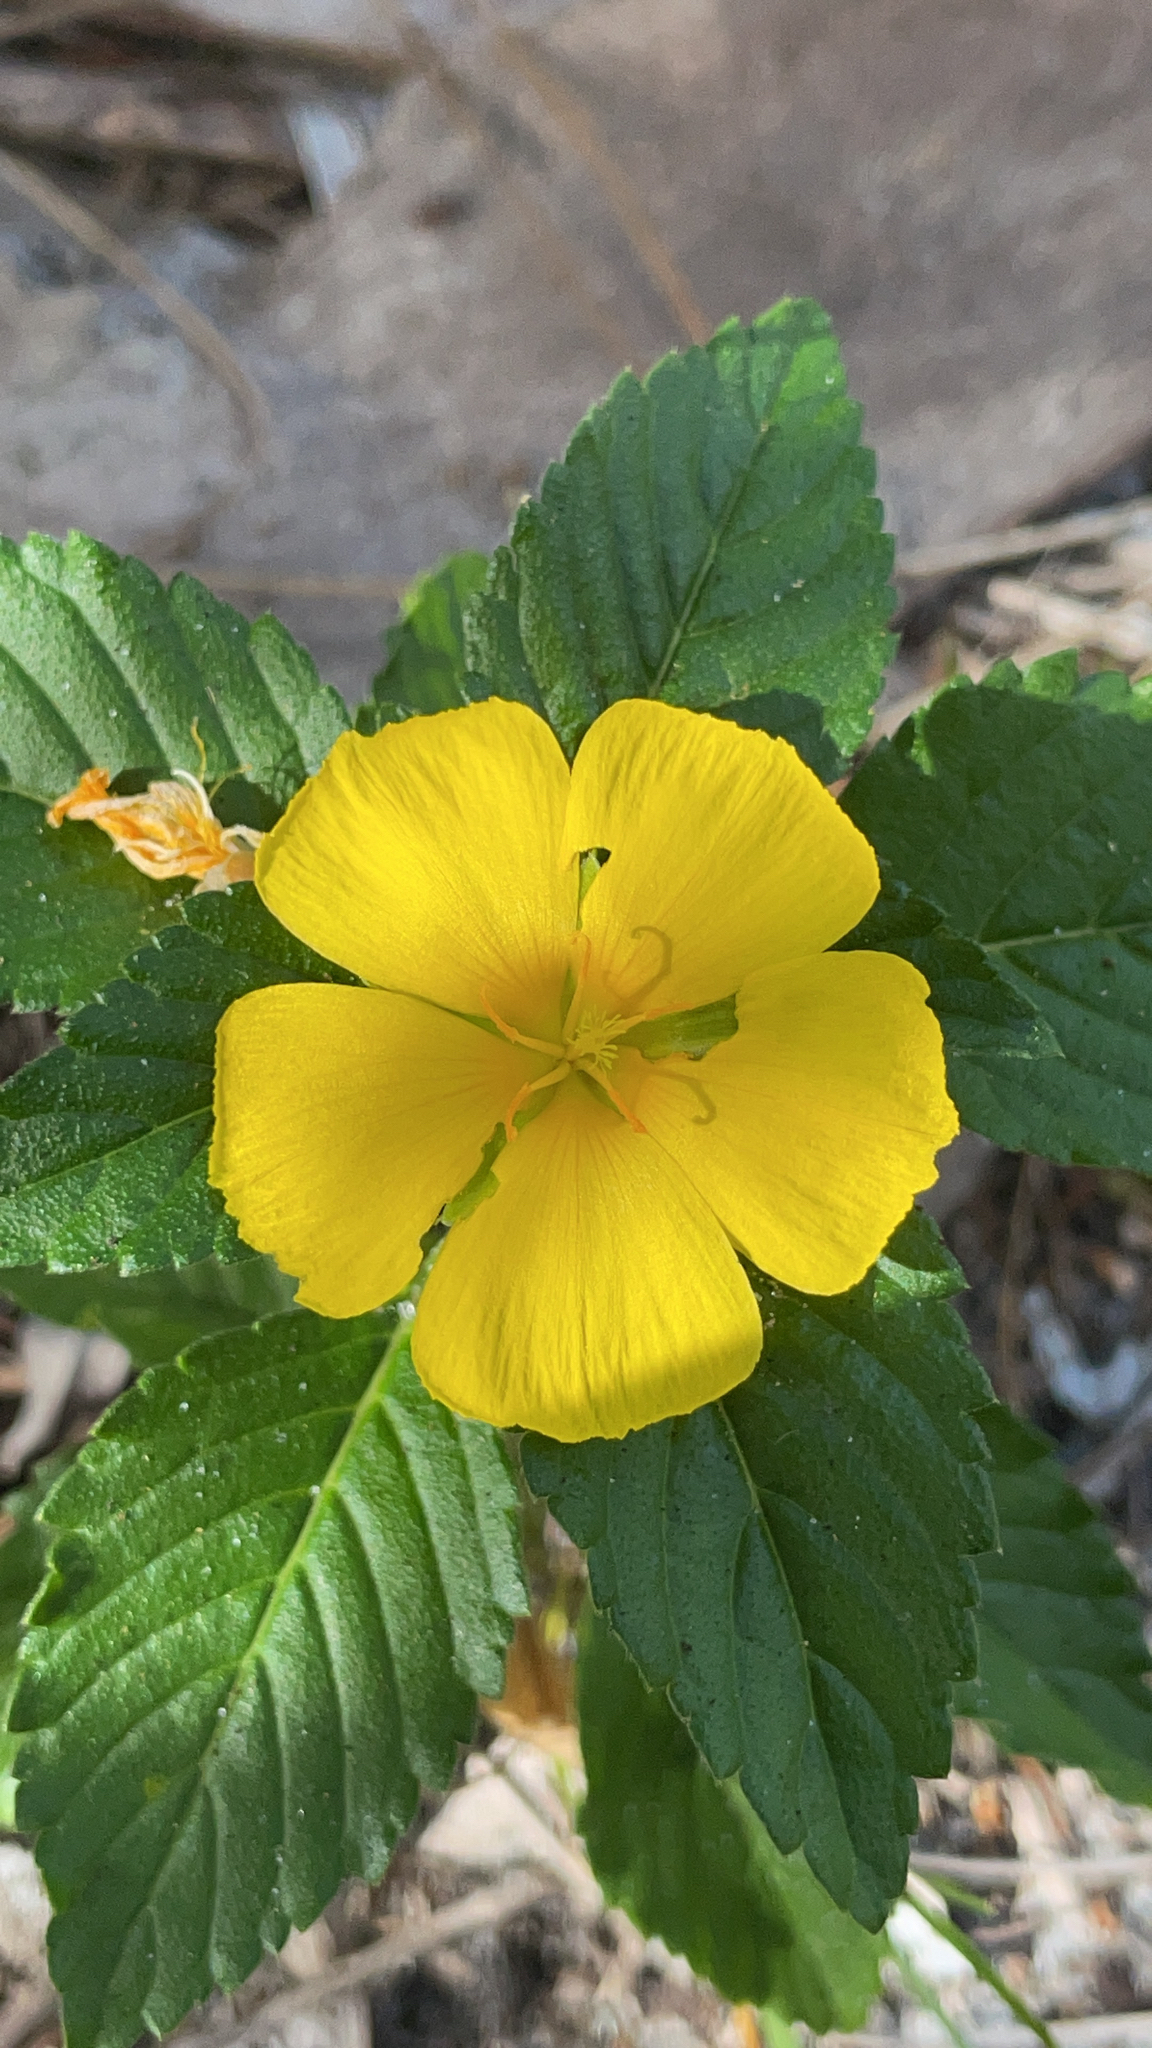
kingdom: Plantae
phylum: Tracheophyta
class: Magnoliopsida
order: Malpighiales
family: Turneraceae
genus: Turnera
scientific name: Turnera ulmifolia
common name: Ramgoat dashalong
